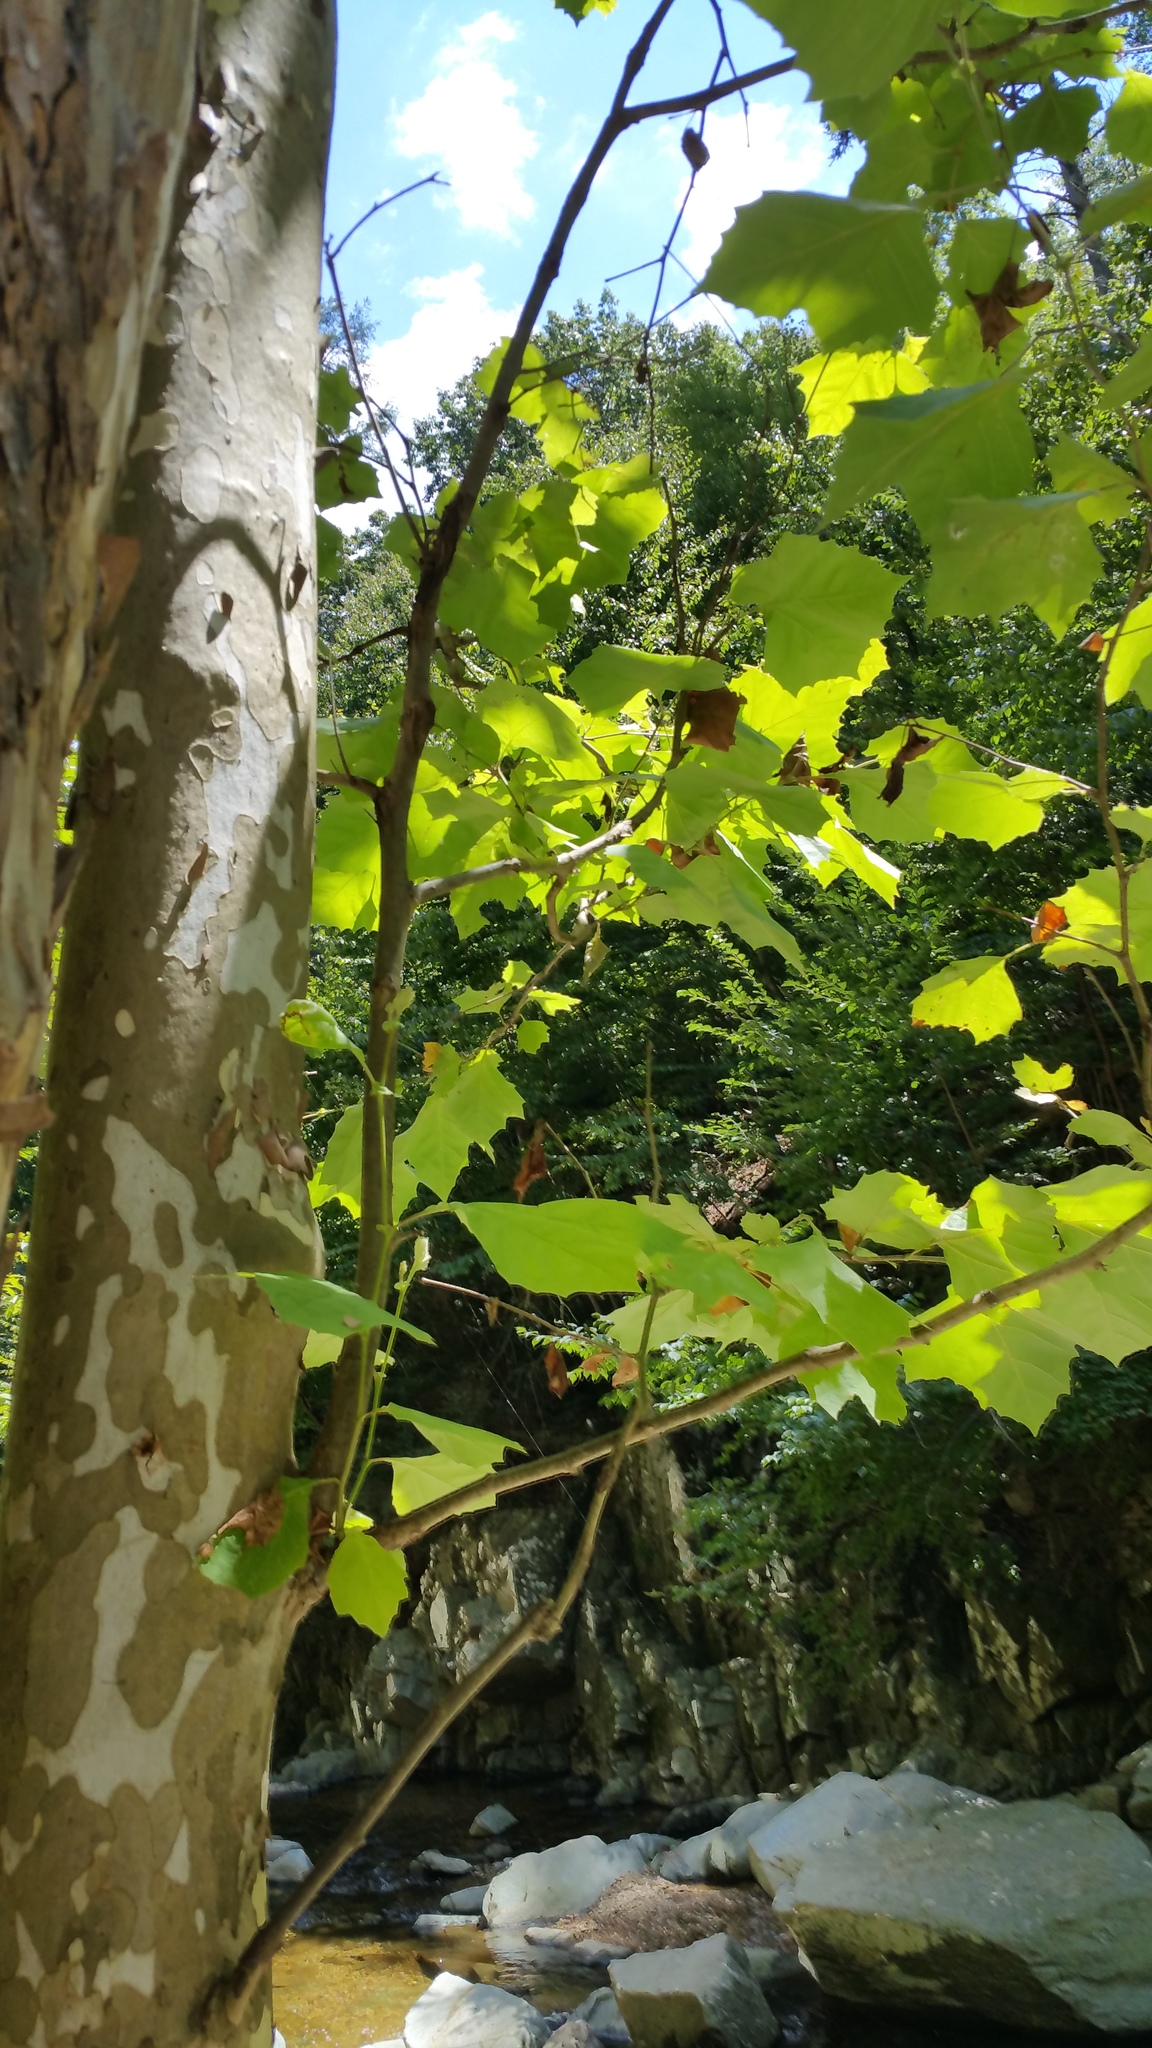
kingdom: Plantae
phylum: Tracheophyta
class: Magnoliopsida
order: Proteales
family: Platanaceae
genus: Platanus
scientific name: Platanus occidentalis
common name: American sycamore
